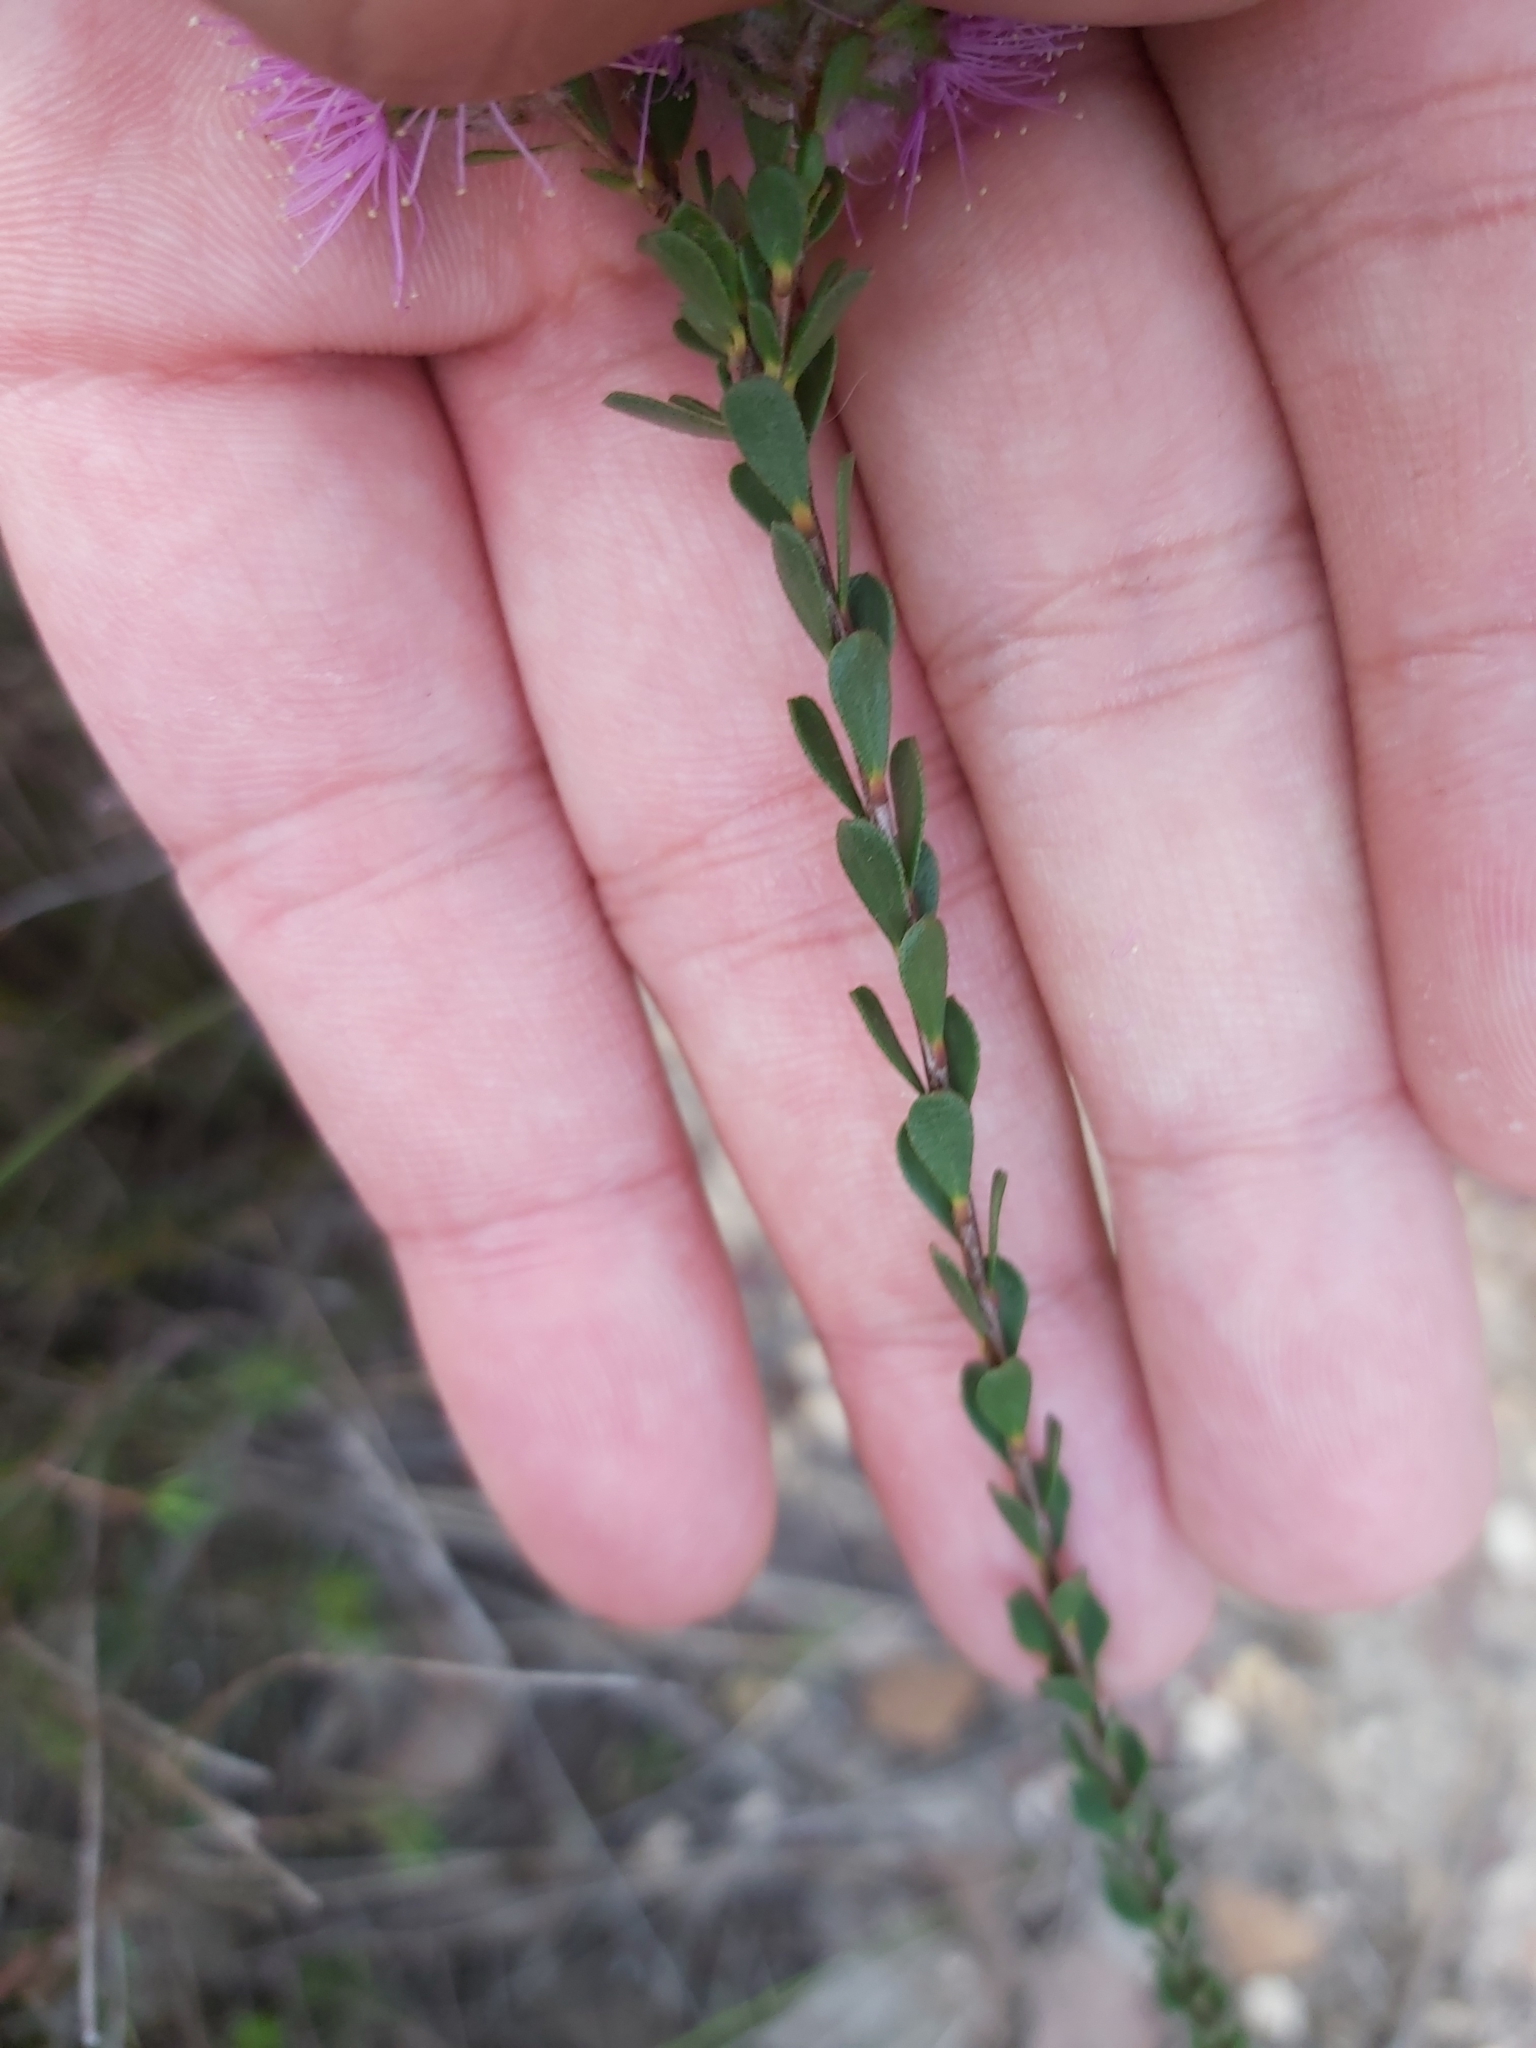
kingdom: Plantae
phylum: Tracheophyta
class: Magnoliopsida
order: Myrtales
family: Myrtaceae
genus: Kunzea
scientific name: Kunzea capitata
